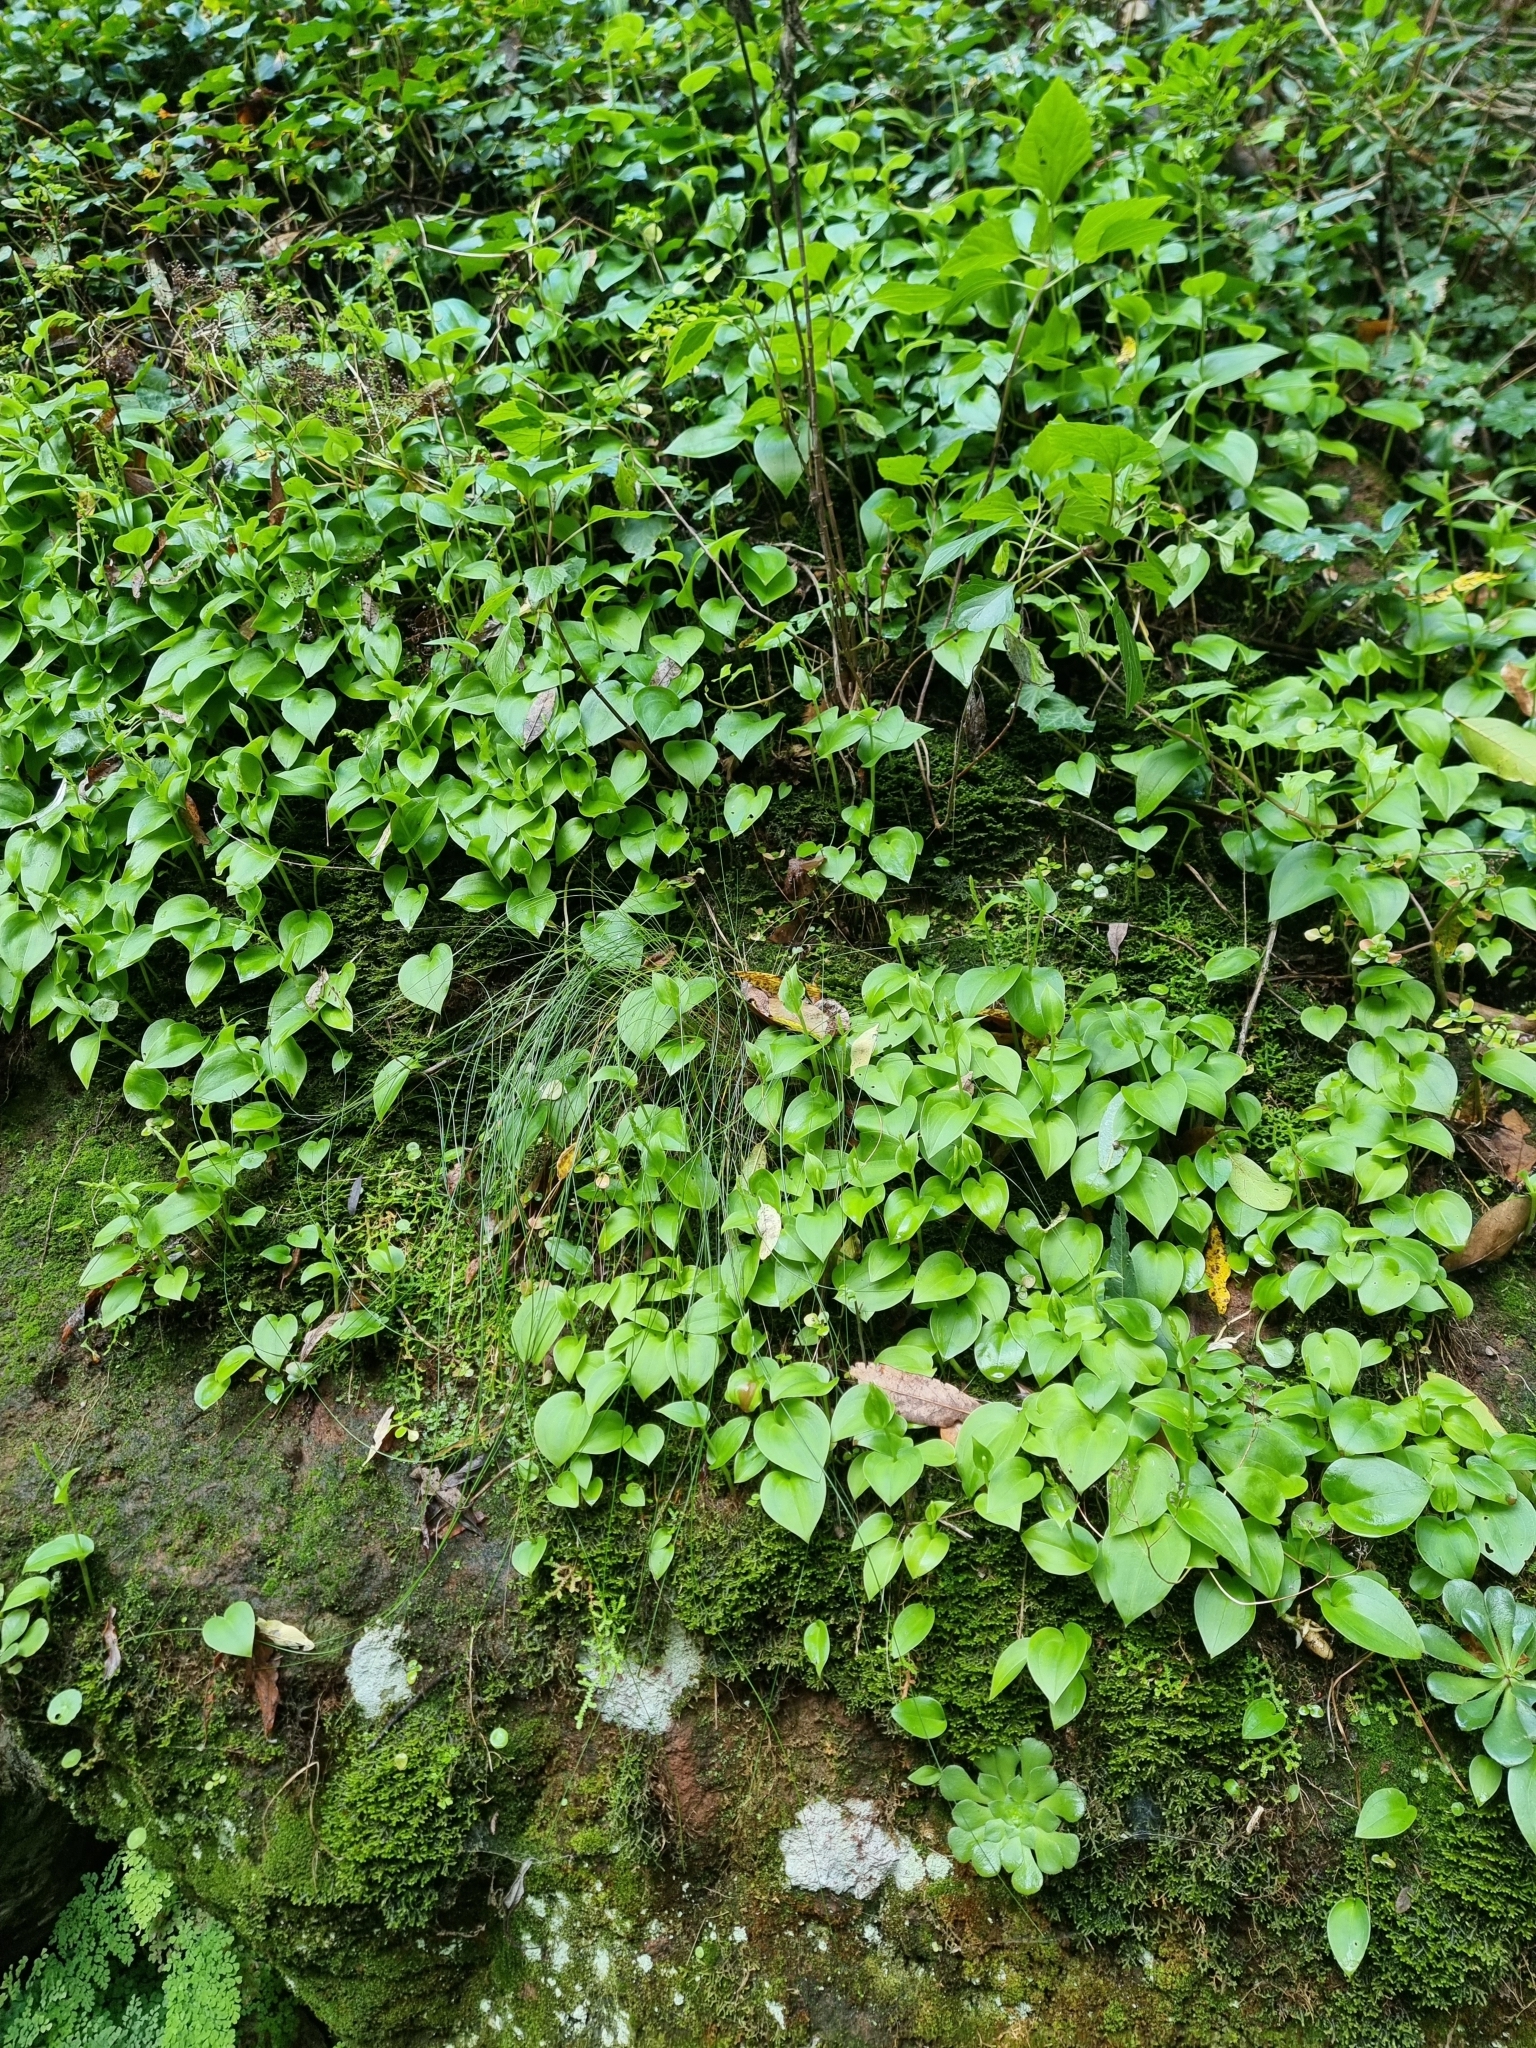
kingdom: Plantae
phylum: Tracheophyta
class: Liliopsida
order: Asparagales
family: Orchidaceae
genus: Gennaria
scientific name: Gennaria diphylla
